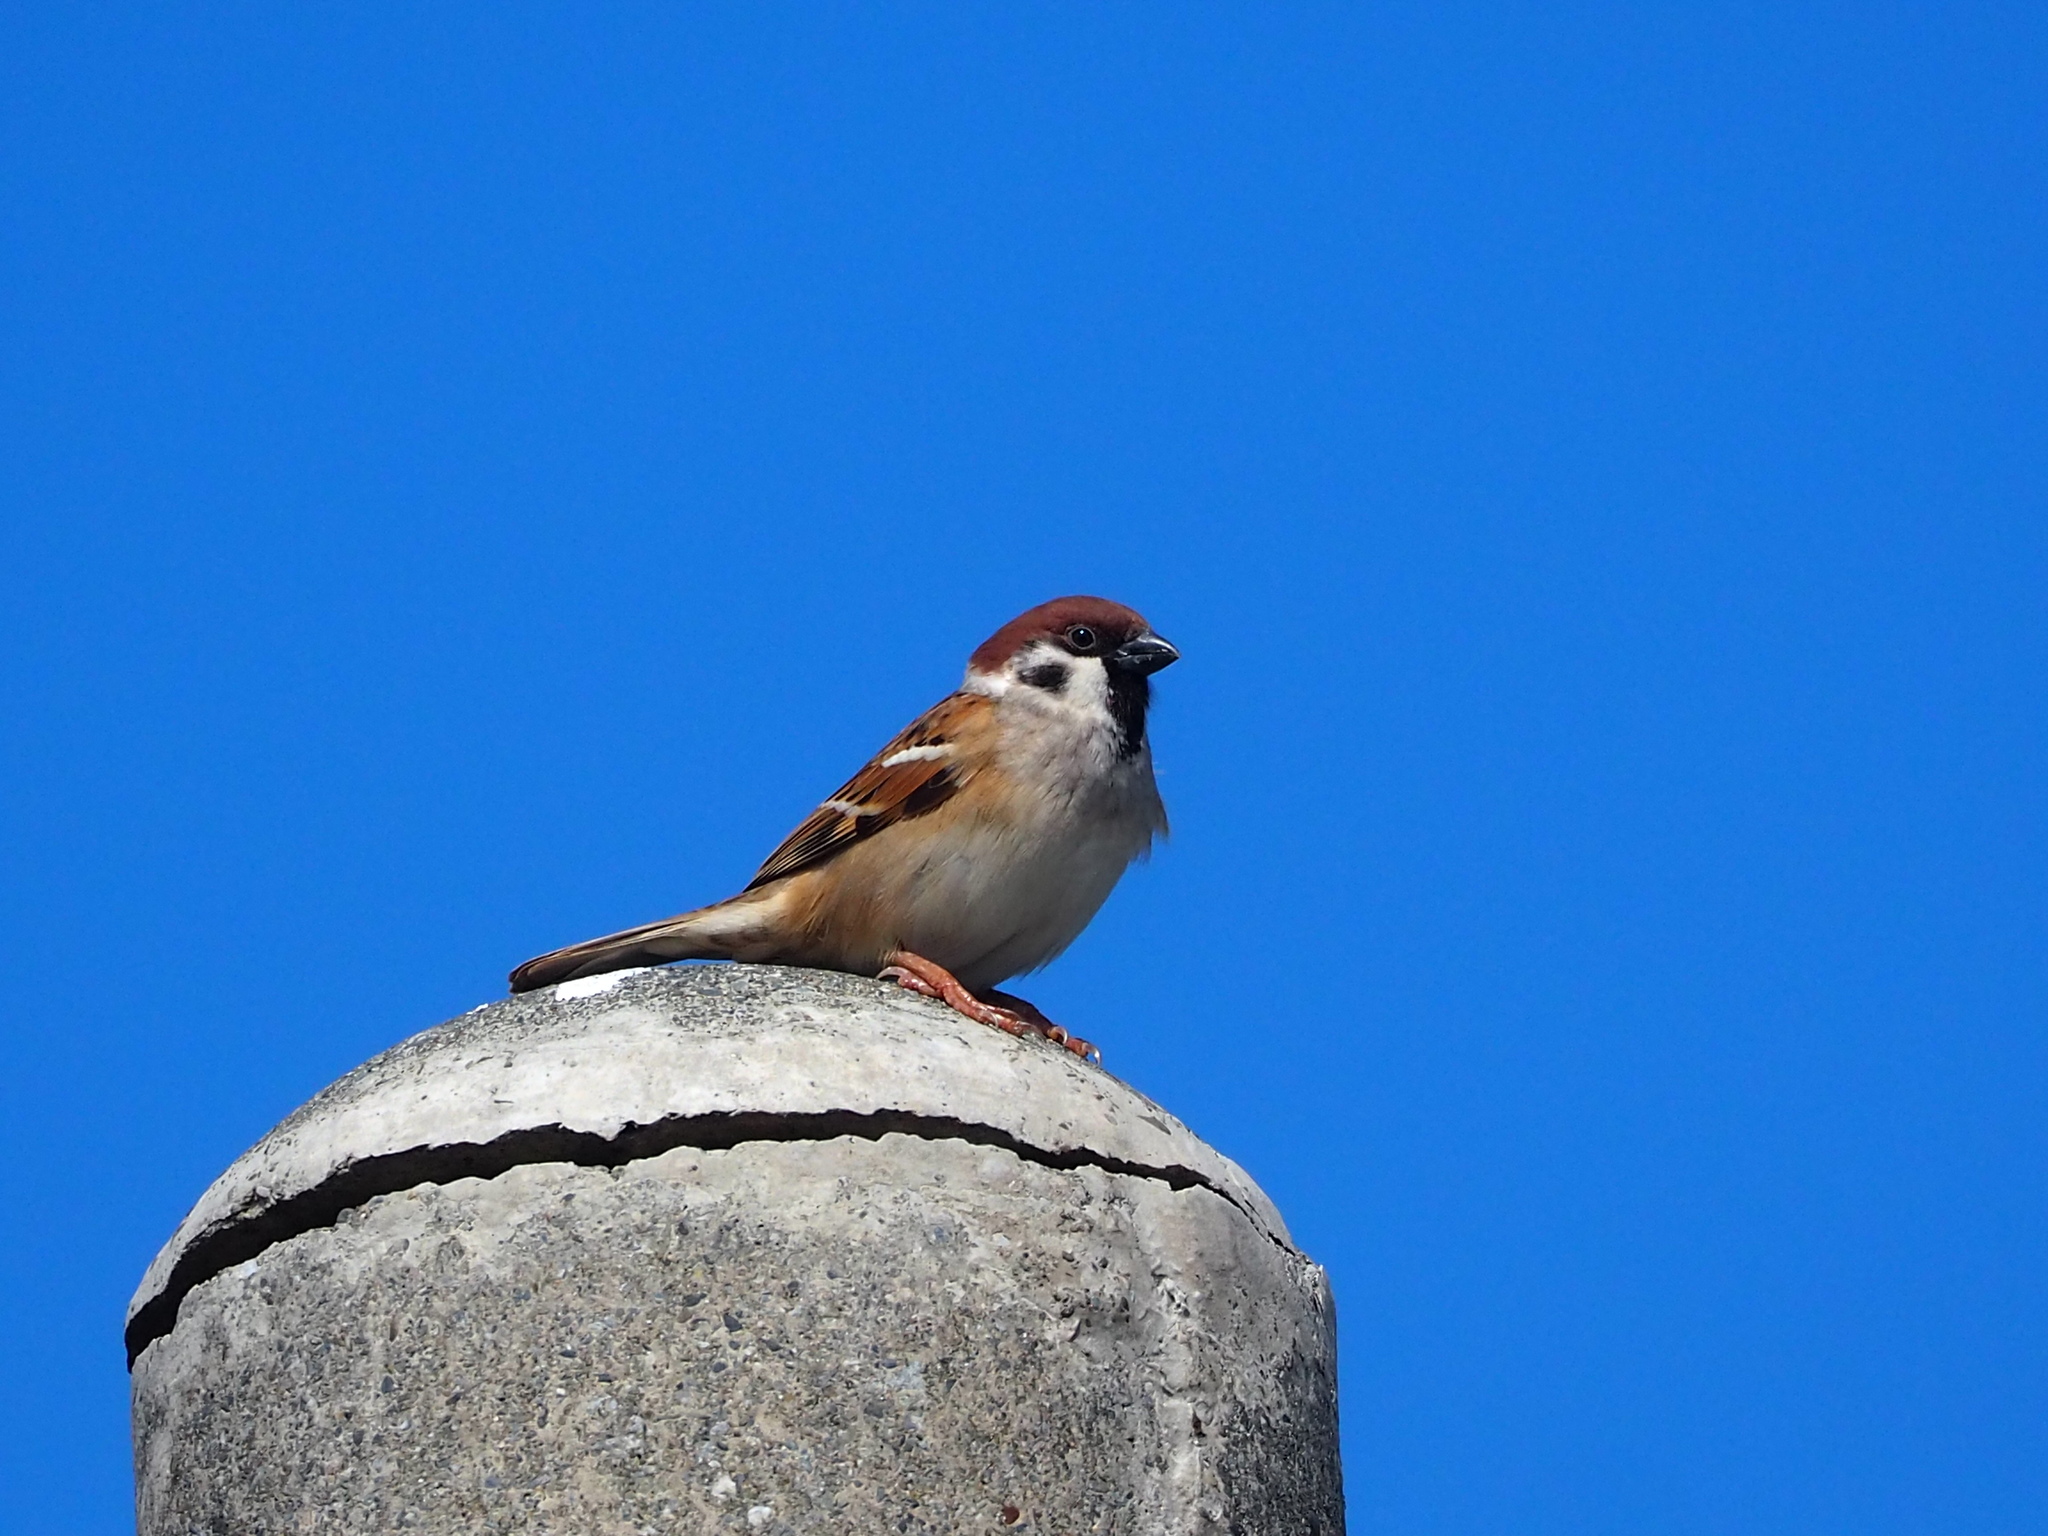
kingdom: Animalia
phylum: Chordata
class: Aves
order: Passeriformes
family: Passeridae
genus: Passer
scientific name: Passer montanus
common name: Eurasian tree sparrow
